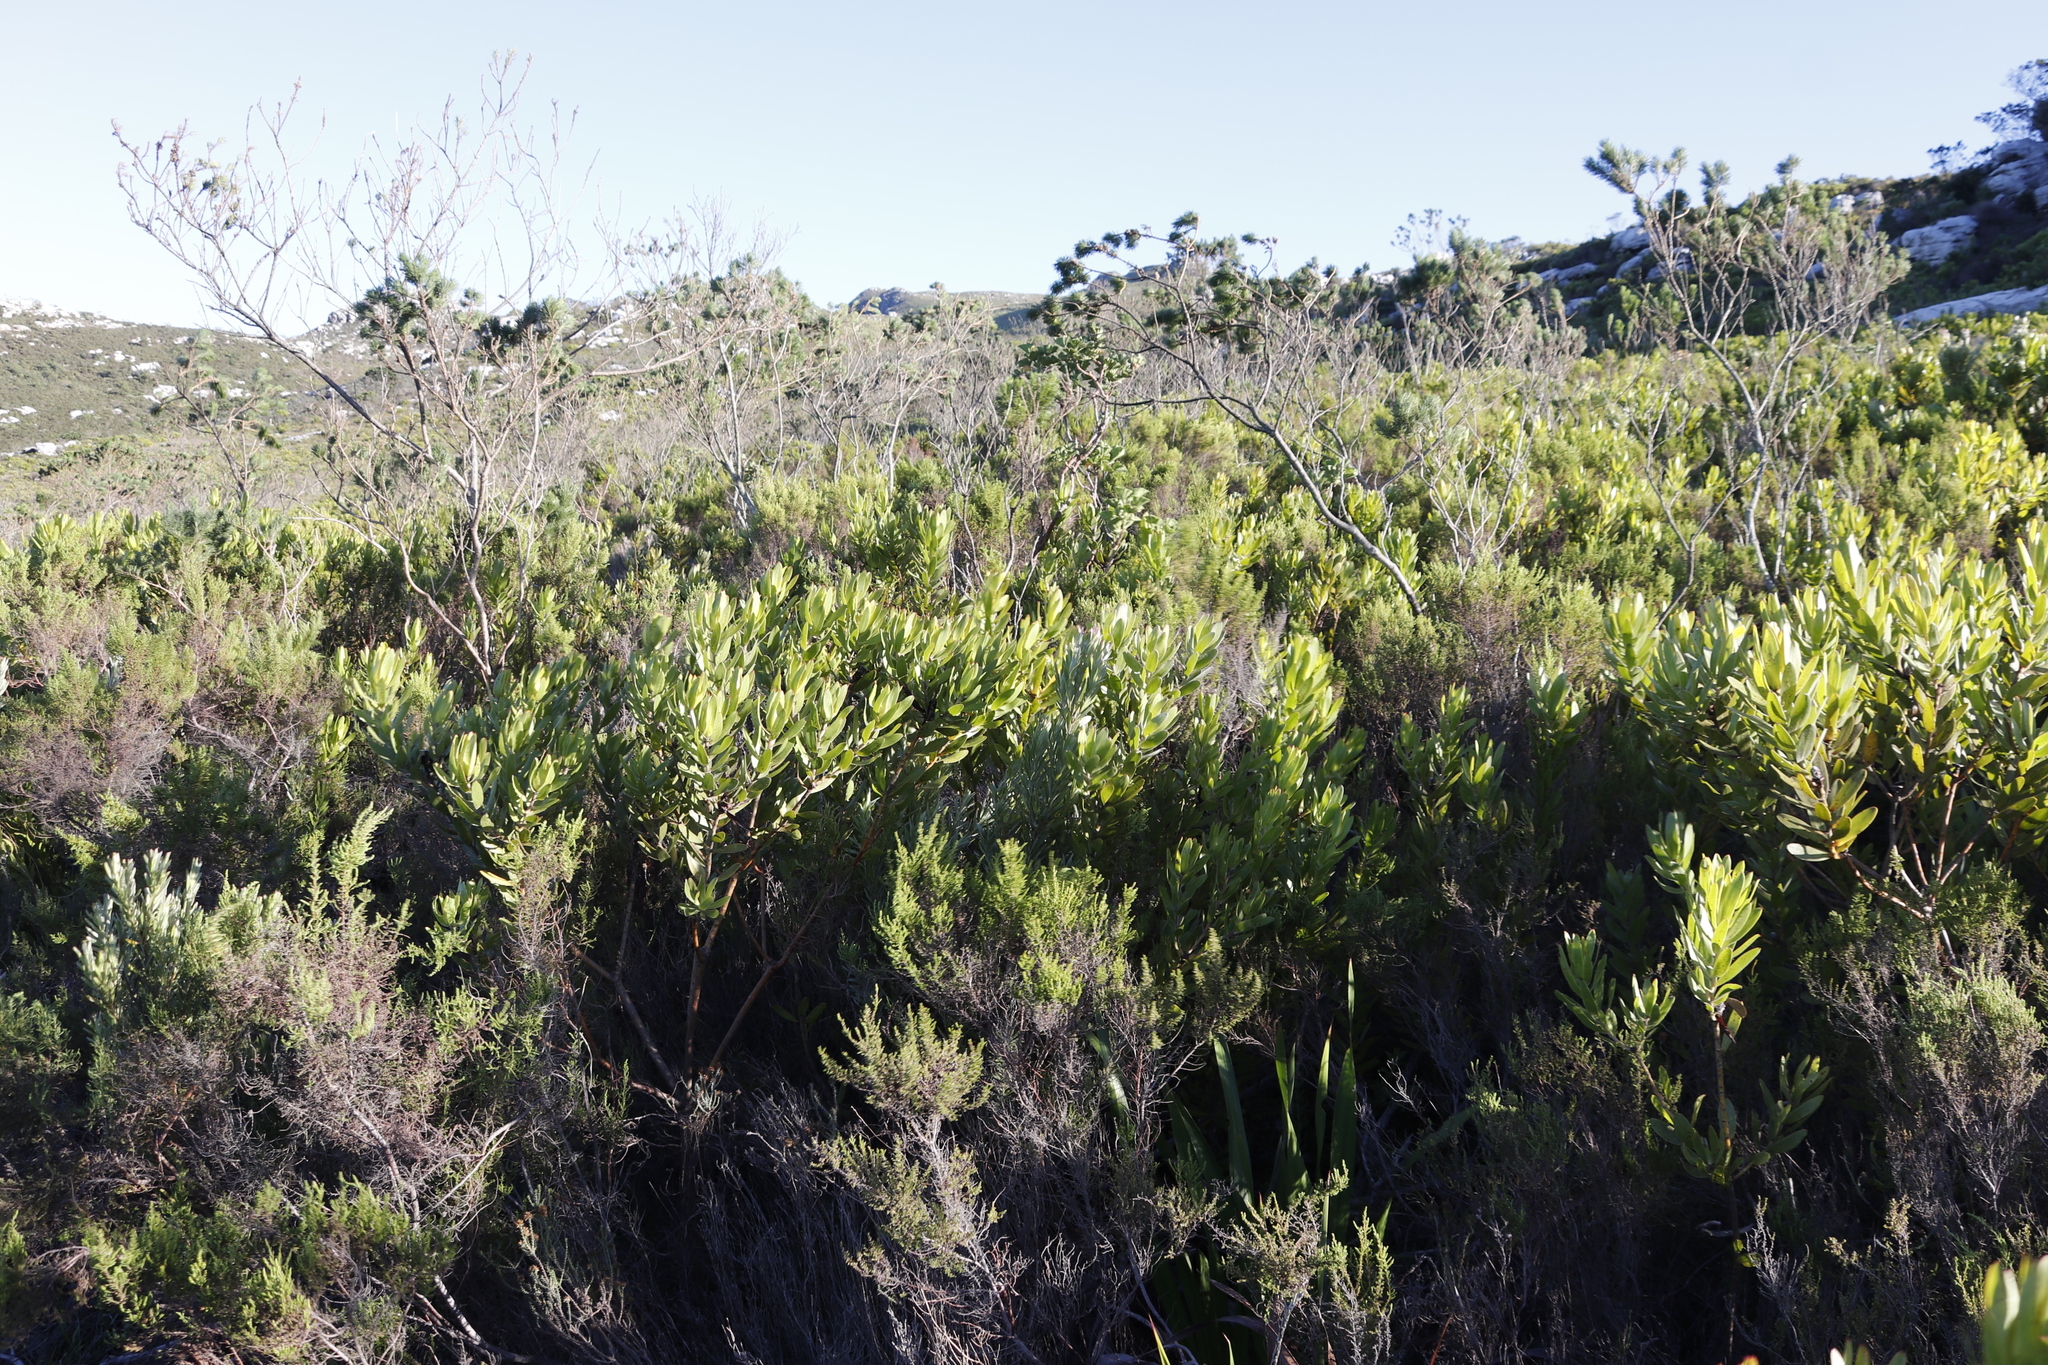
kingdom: Plantae
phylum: Tracheophyta
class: Magnoliopsida
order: Fabales
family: Fabaceae
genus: Psoralea
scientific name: Psoralea pinnata
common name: African scurfpea
